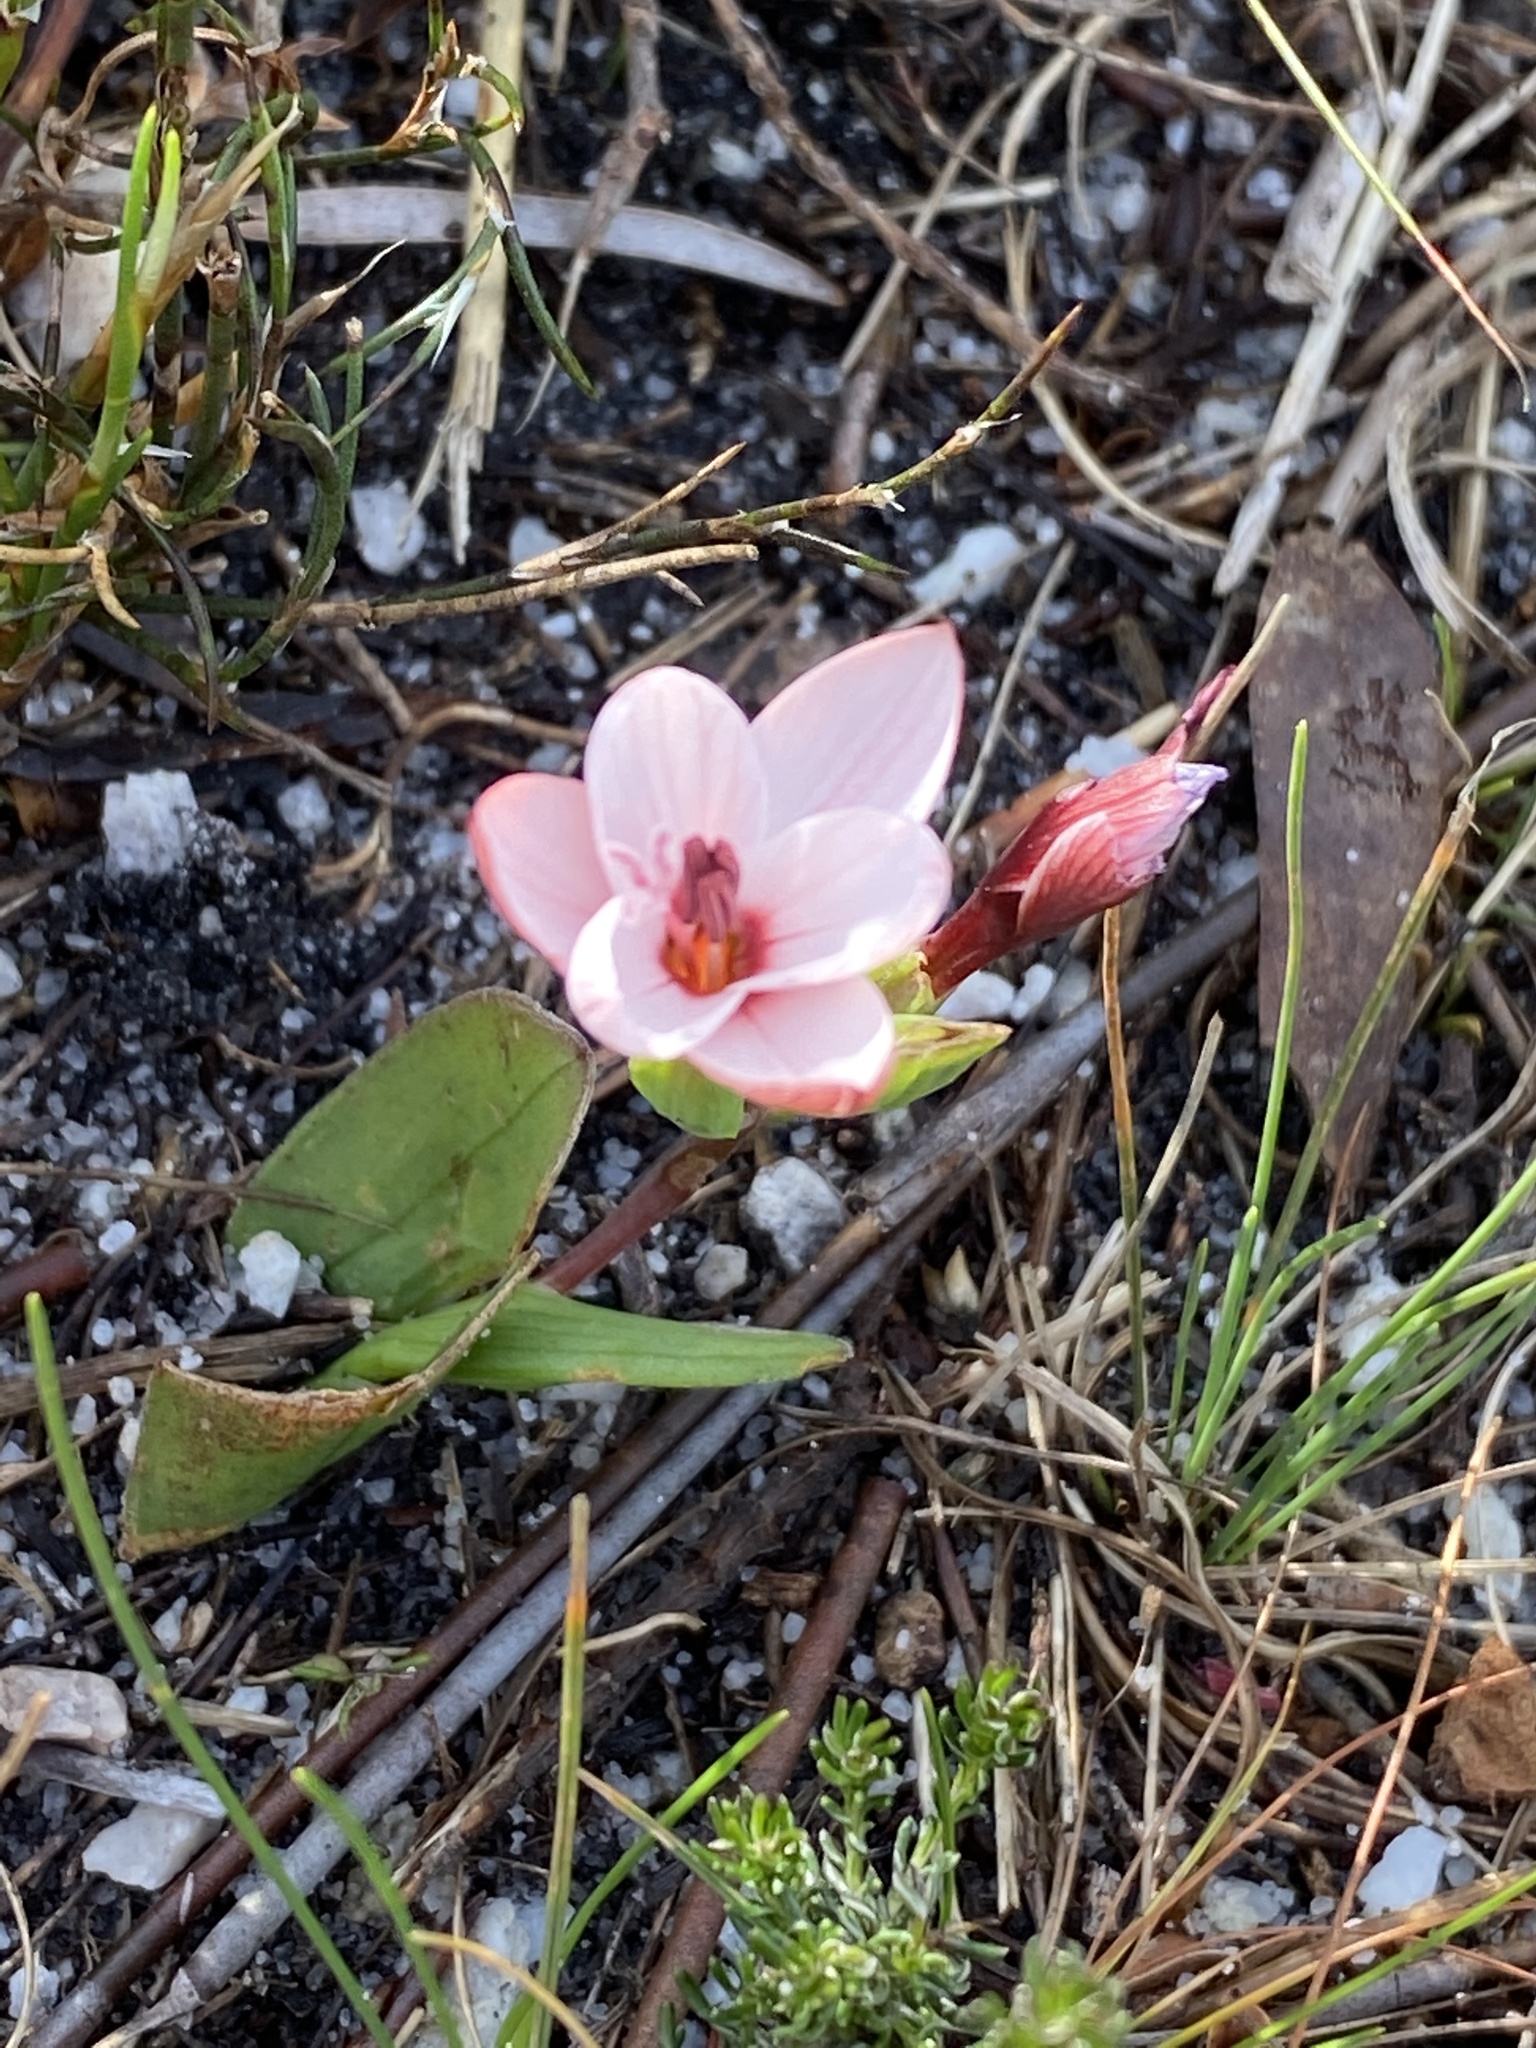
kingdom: Plantae
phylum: Tracheophyta
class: Liliopsida
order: Asparagales
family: Iridaceae
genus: Geissorhiza
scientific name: Geissorhiza ovata
